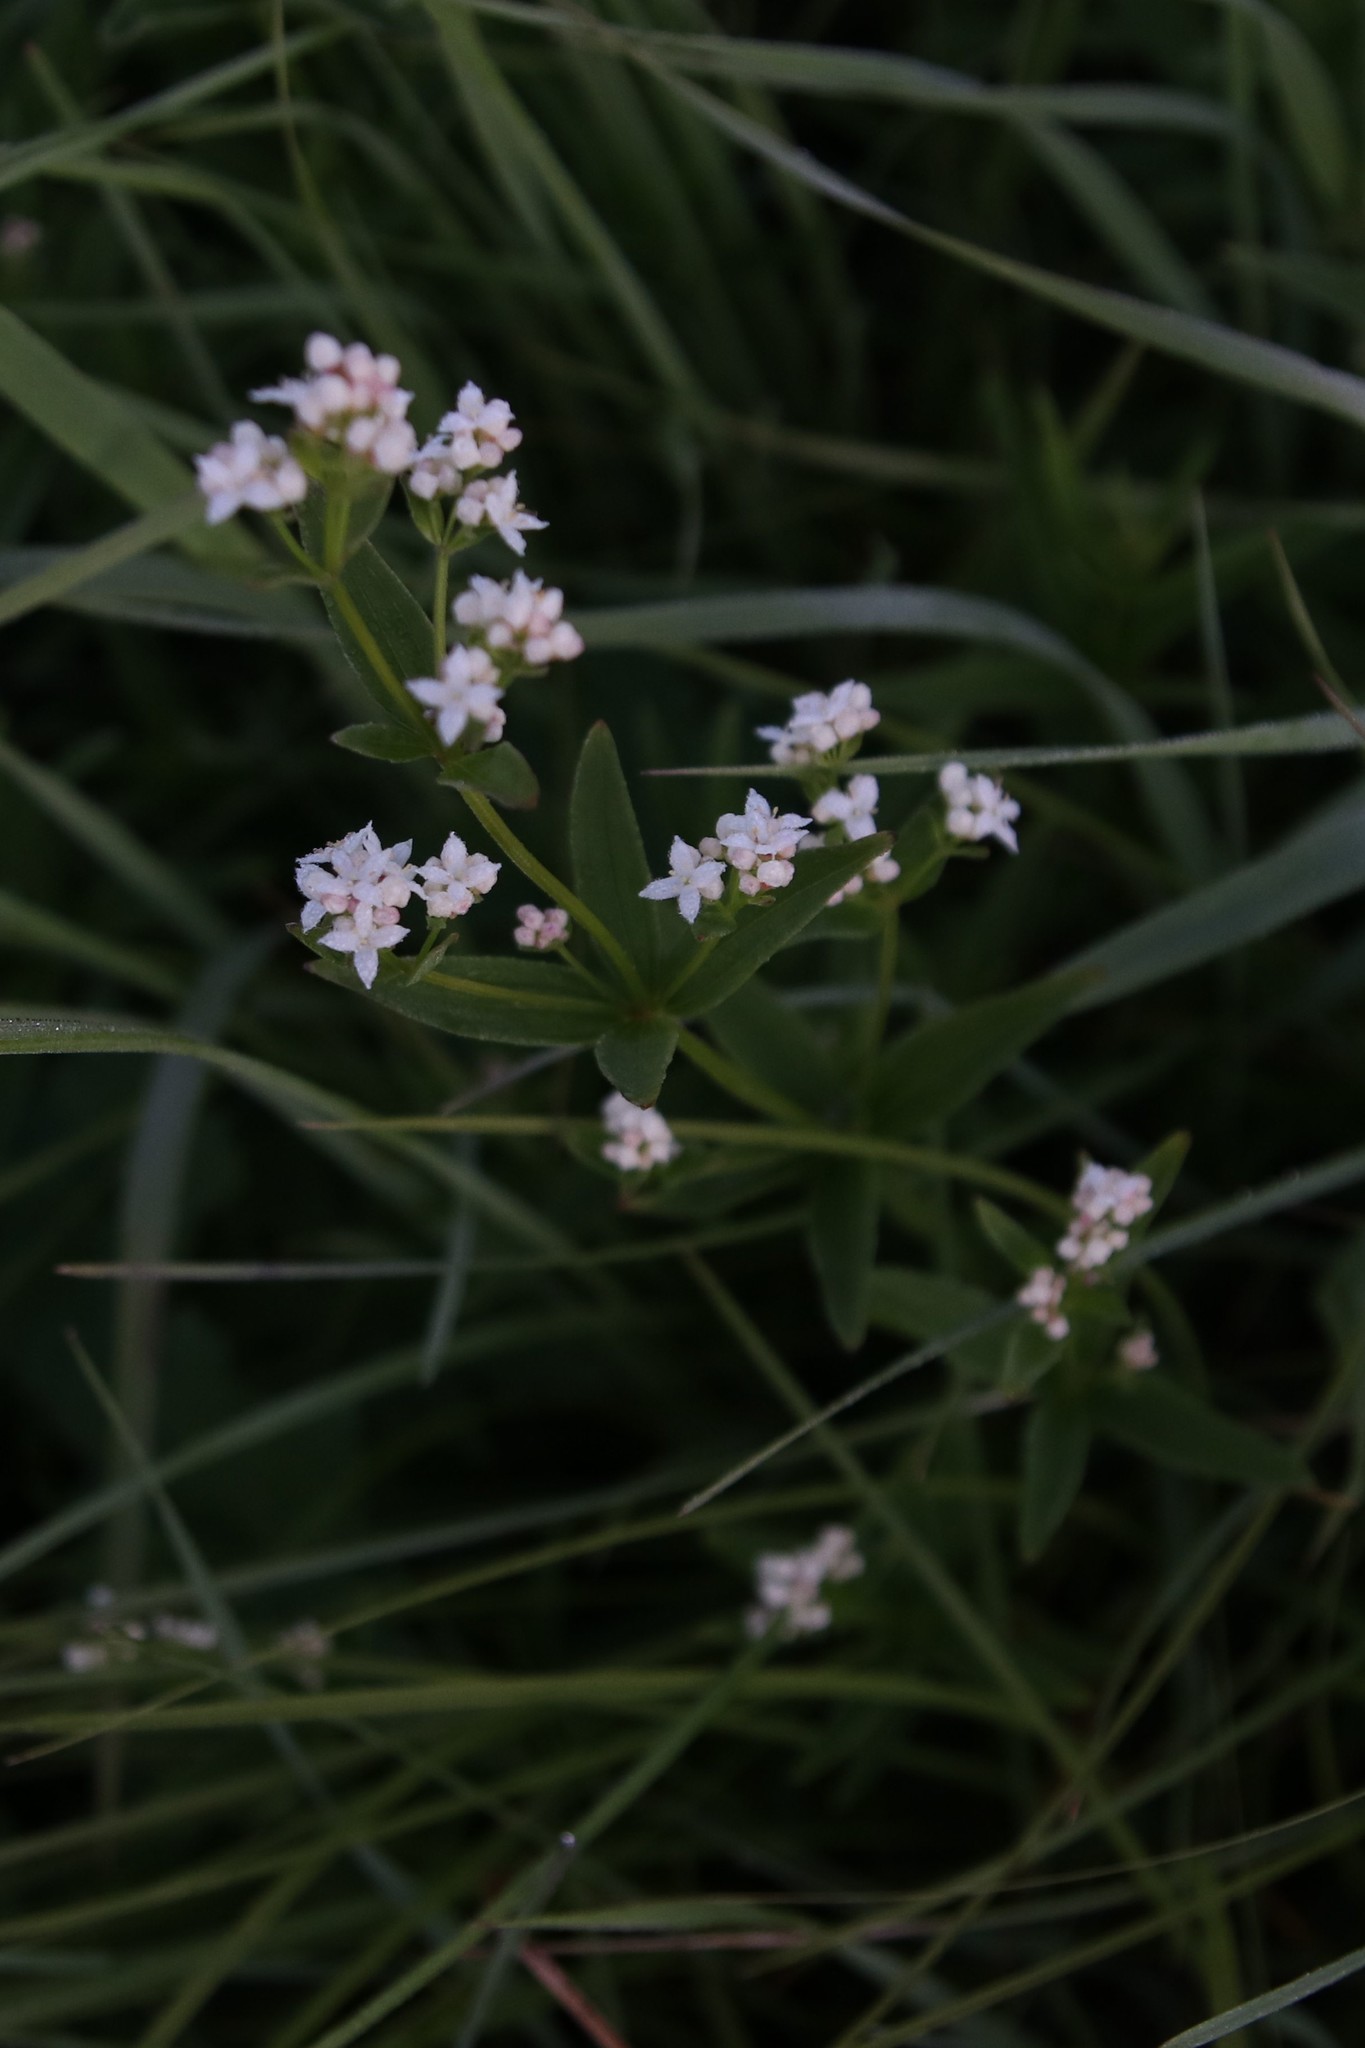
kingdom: Plantae
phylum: Tracheophyta
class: Magnoliopsida
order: Gentianales
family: Rubiaceae
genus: Galium
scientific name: Galium rubioides
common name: European bedstraw
